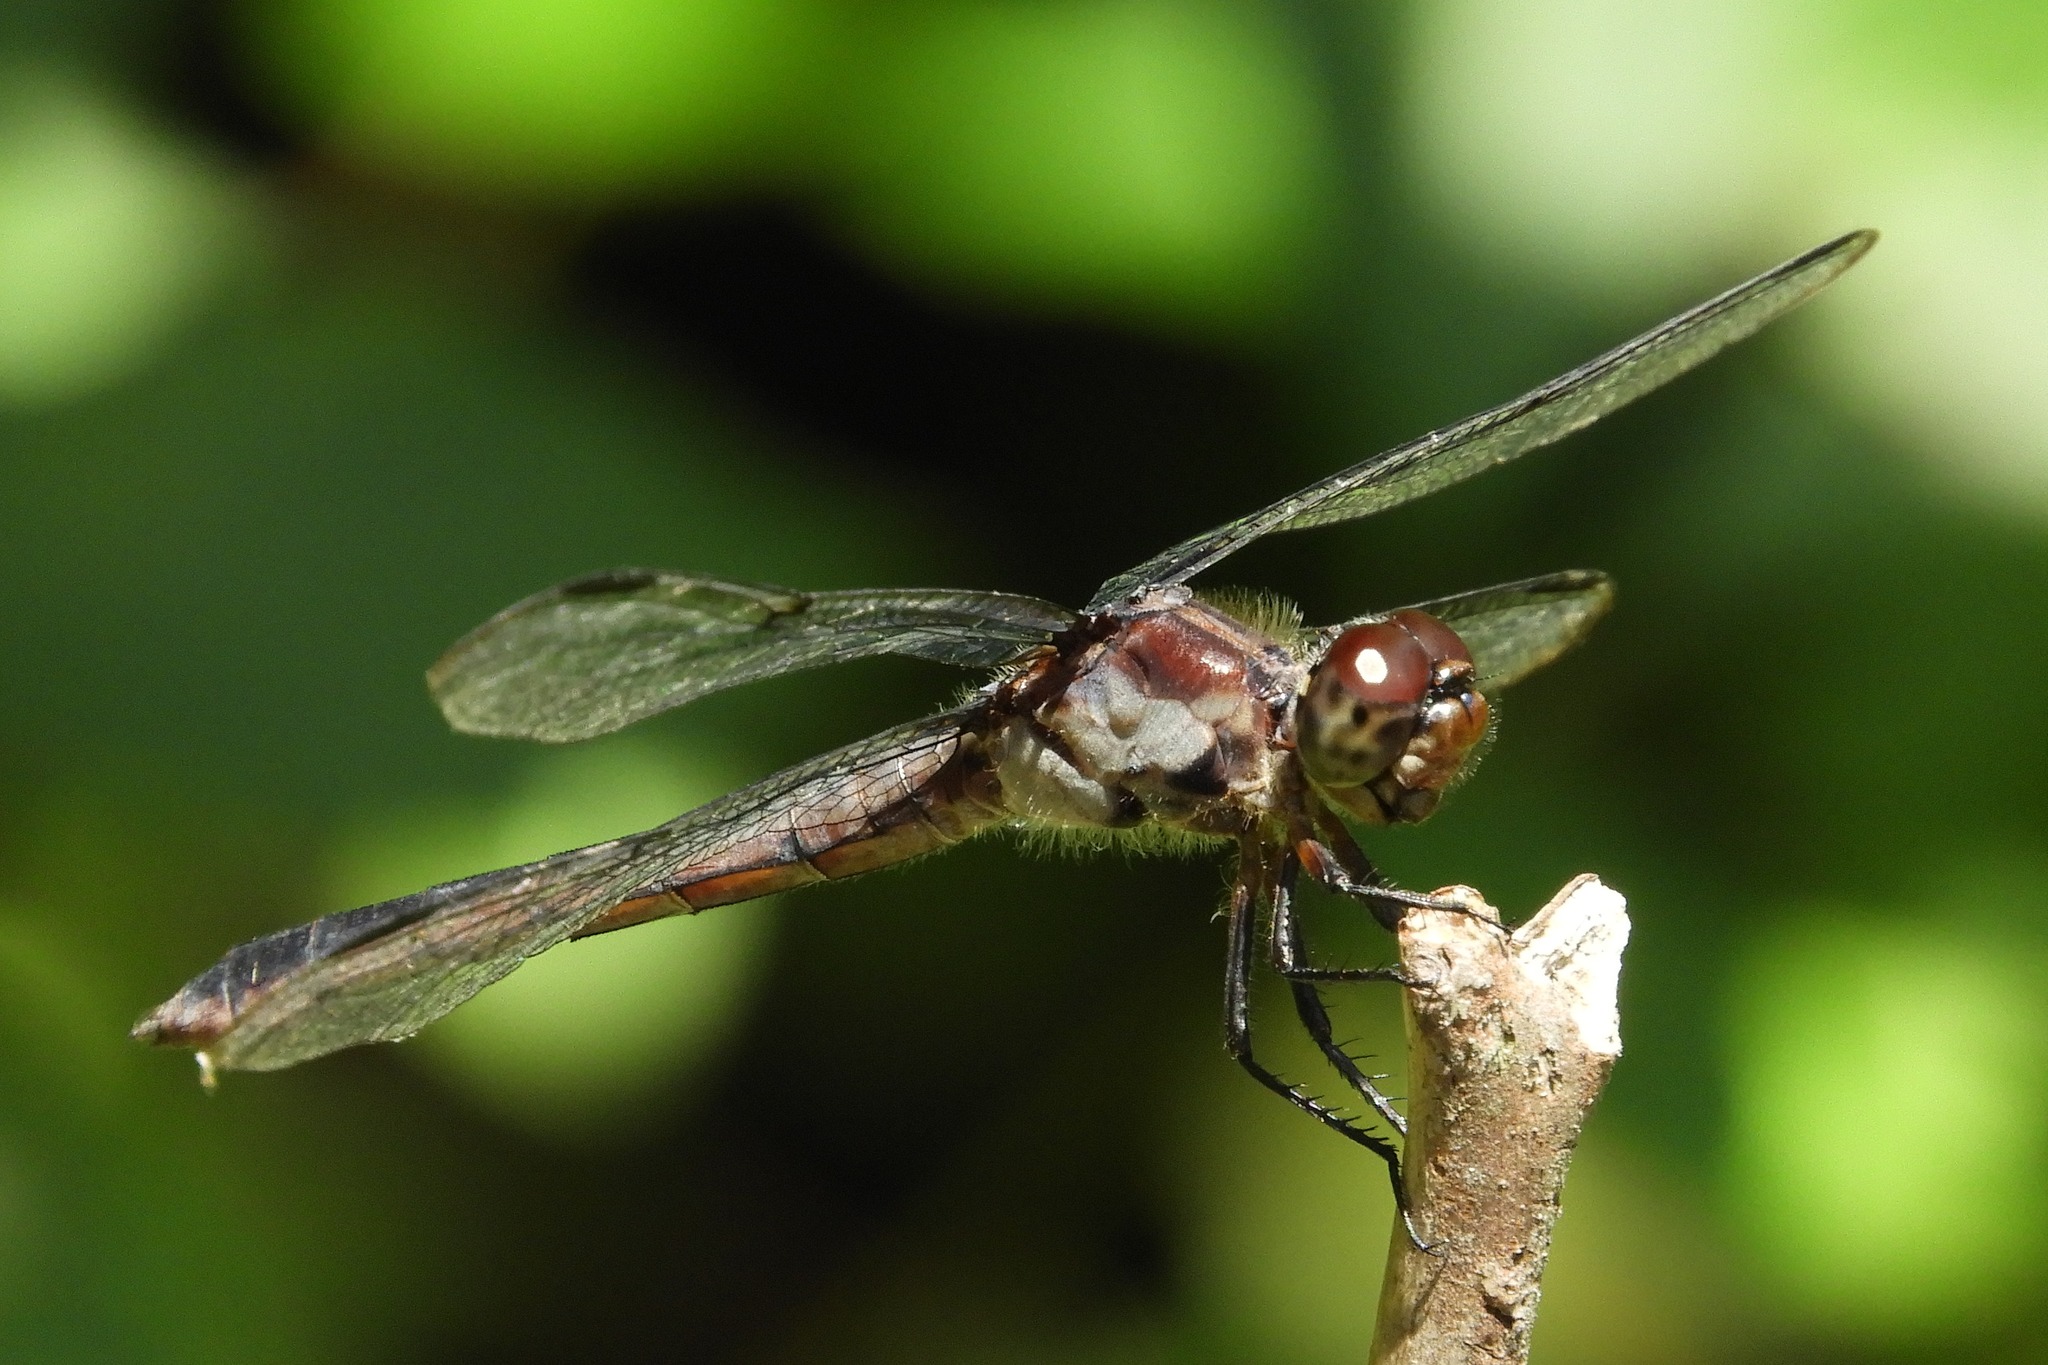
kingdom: Animalia
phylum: Arthropoda
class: Insecta
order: Odonata
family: Libellulidae
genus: Libellula
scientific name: Libellula incesta
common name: Slaty skimmer
